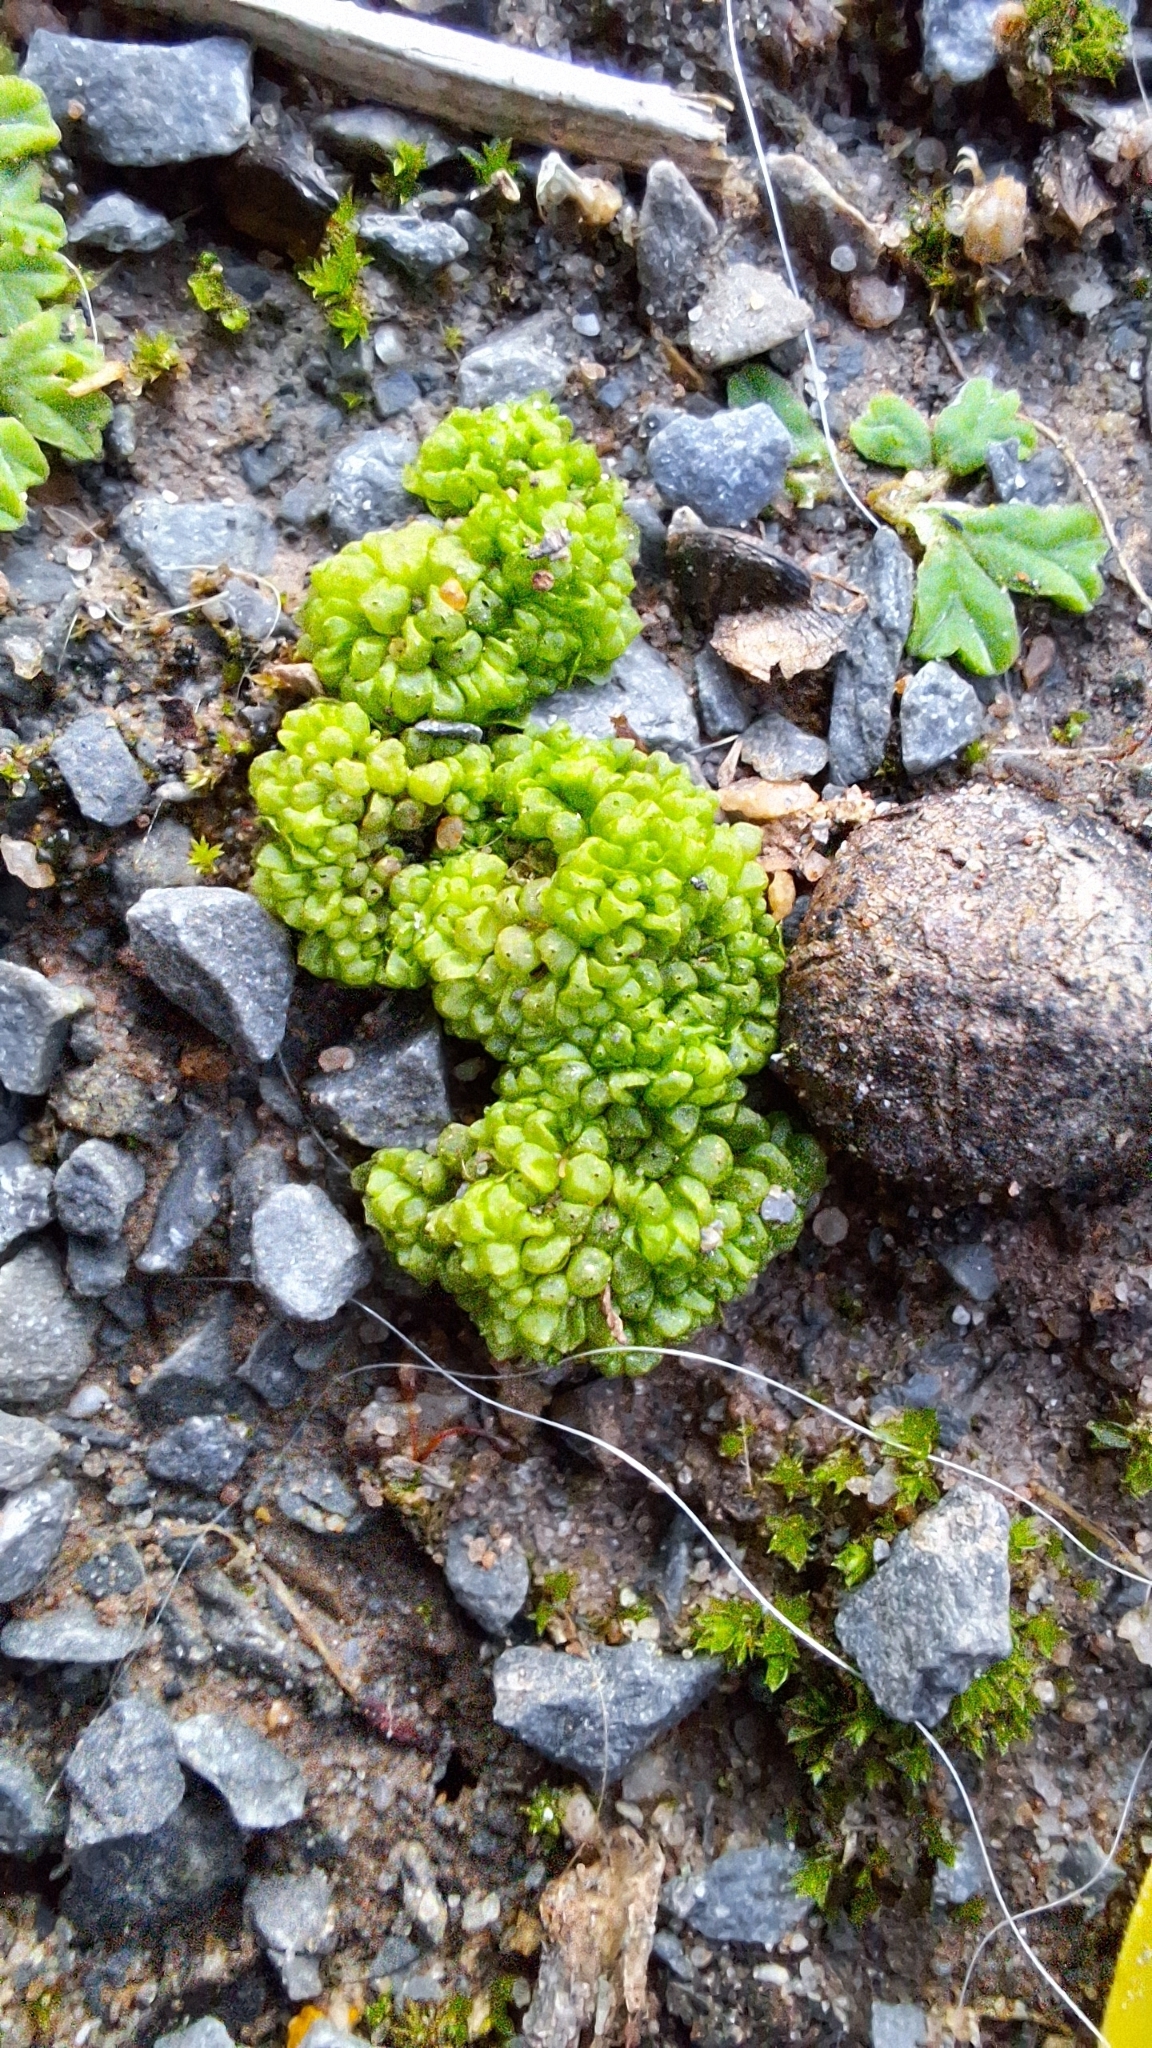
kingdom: Plantae
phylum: Marchantiophyta
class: Marchantiopsida
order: Sphaerocarpales
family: Sphaerocarpaceae
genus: Sphaerocarpos
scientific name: Sphaerocarpos texanus
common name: Texas balloonwort
